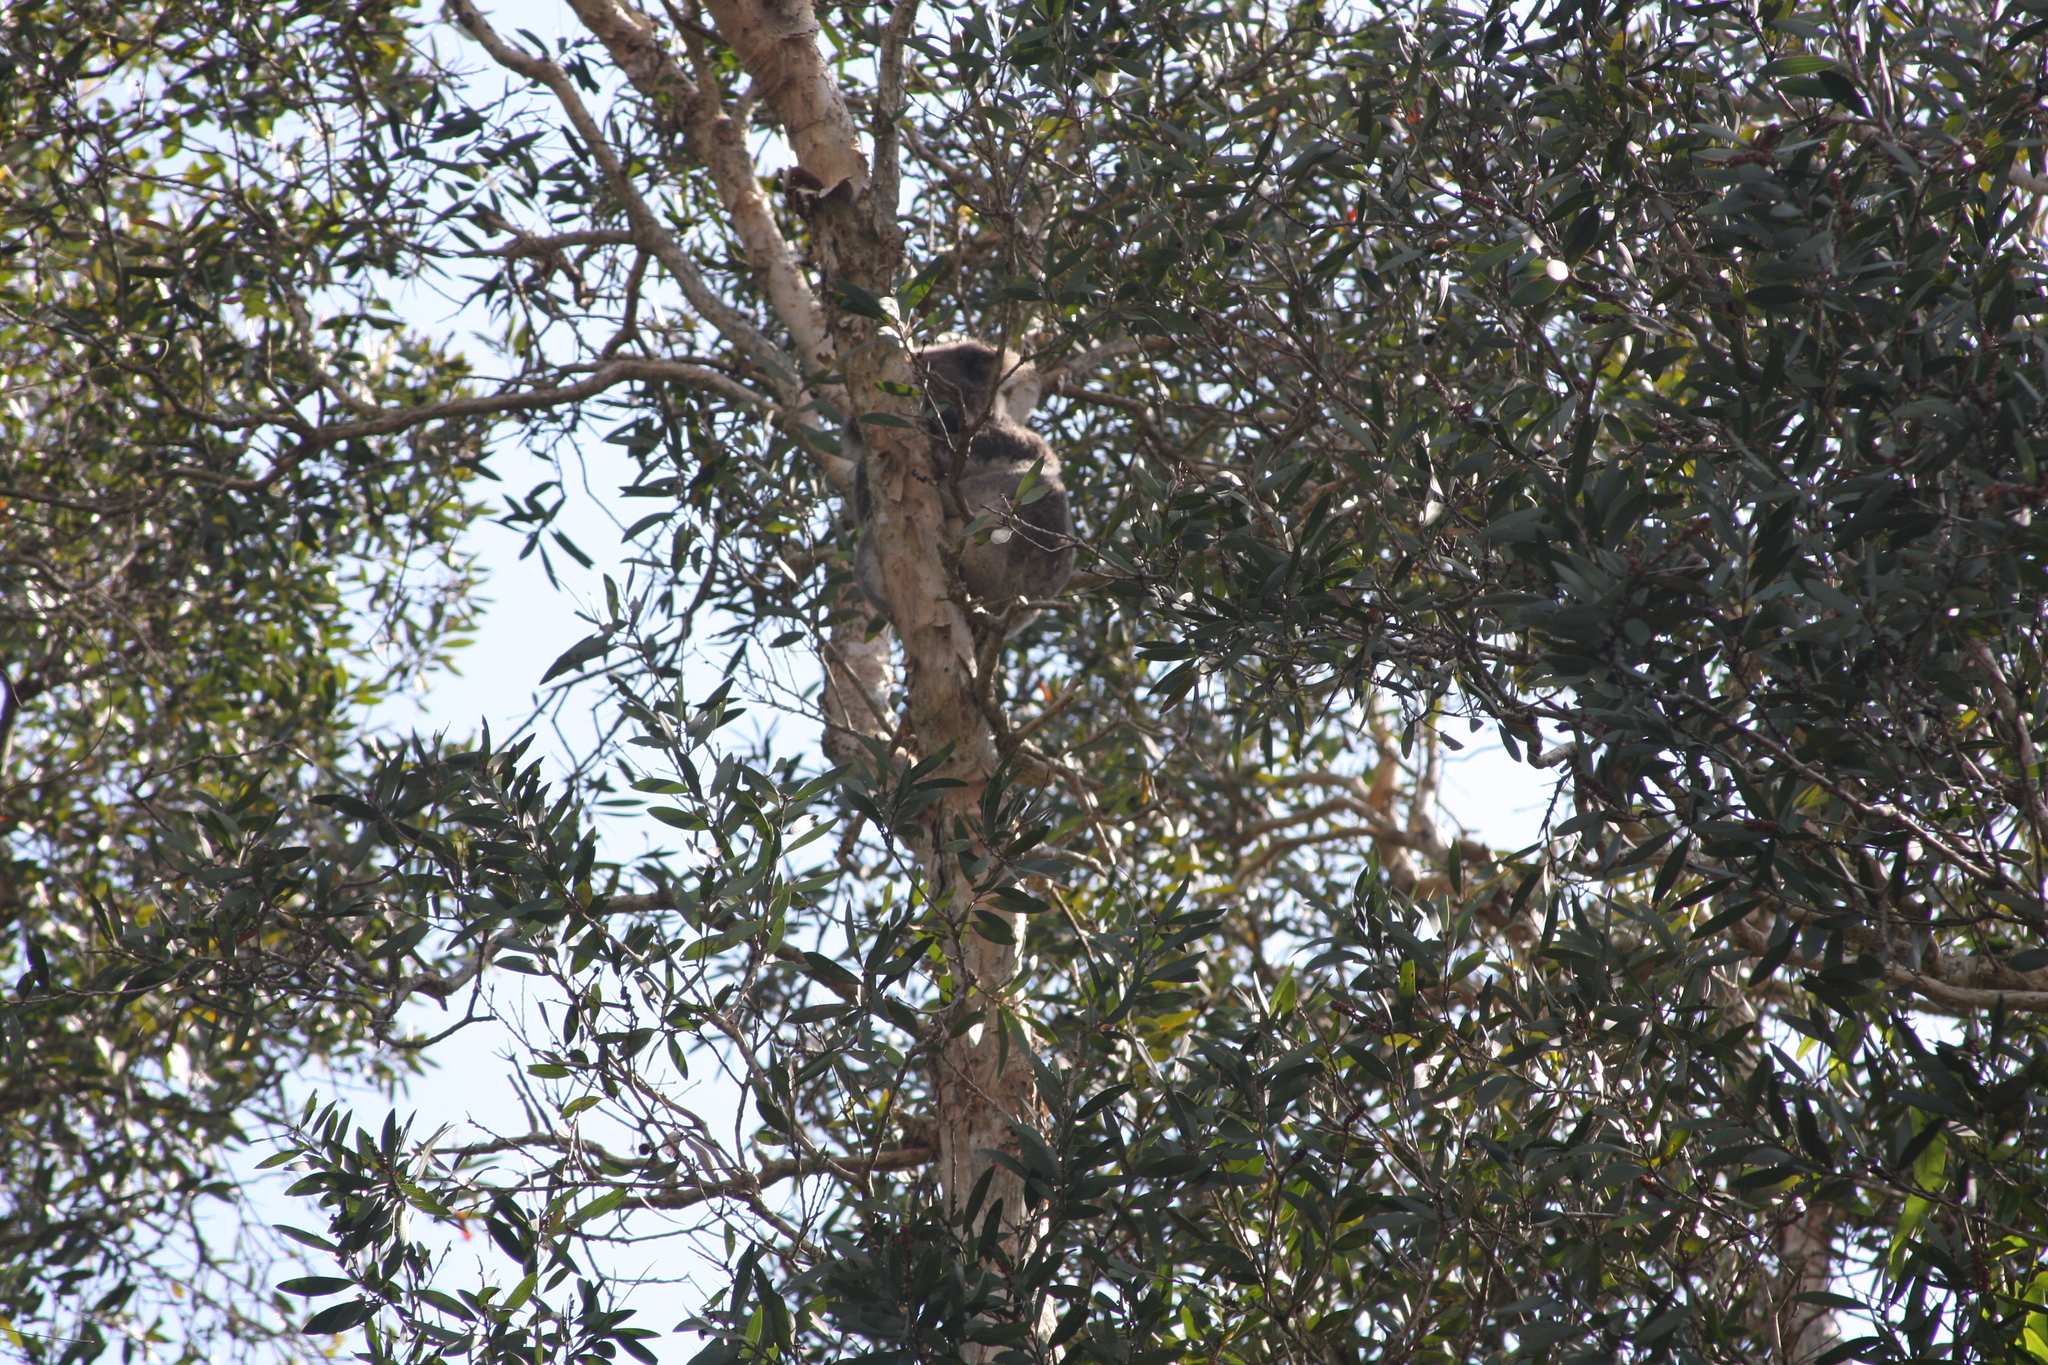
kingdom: Animalia
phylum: Chordata
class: Mammalia
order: Diprotodontia
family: Phascolarctidae
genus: Phascolarctos
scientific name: Phascolarctos cinereus
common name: Koala
